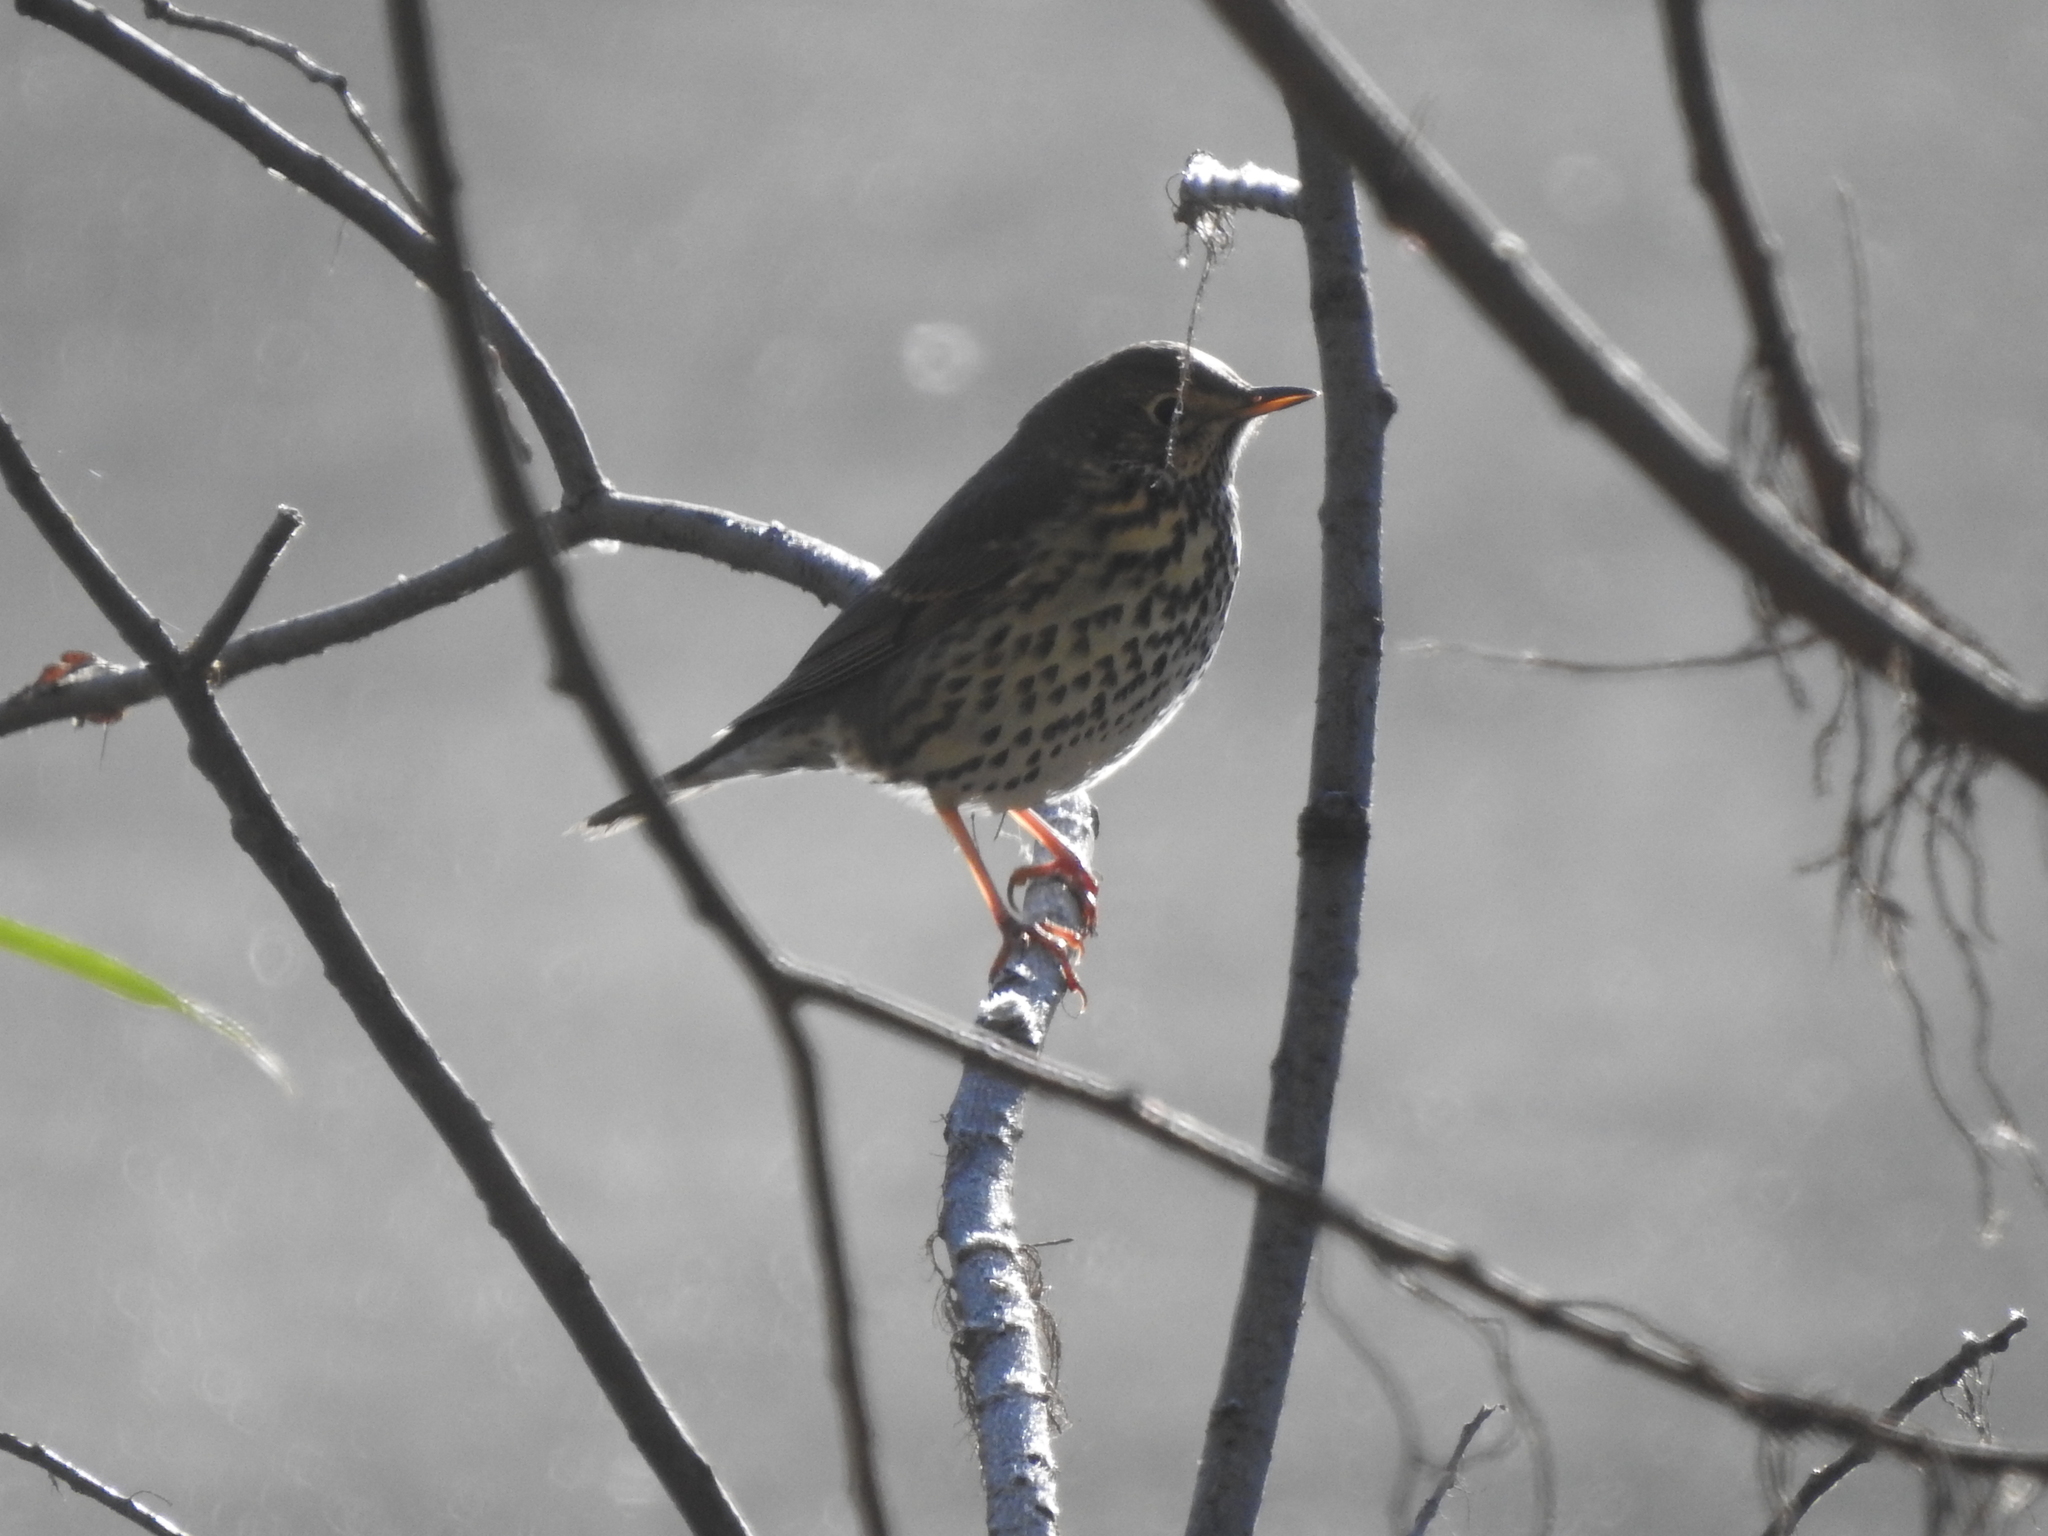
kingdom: Animalia
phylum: Chordata
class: Aves
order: Passeriformes
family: Turdidae
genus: Turdus
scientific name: Turdus philomelos
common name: Song thrush
